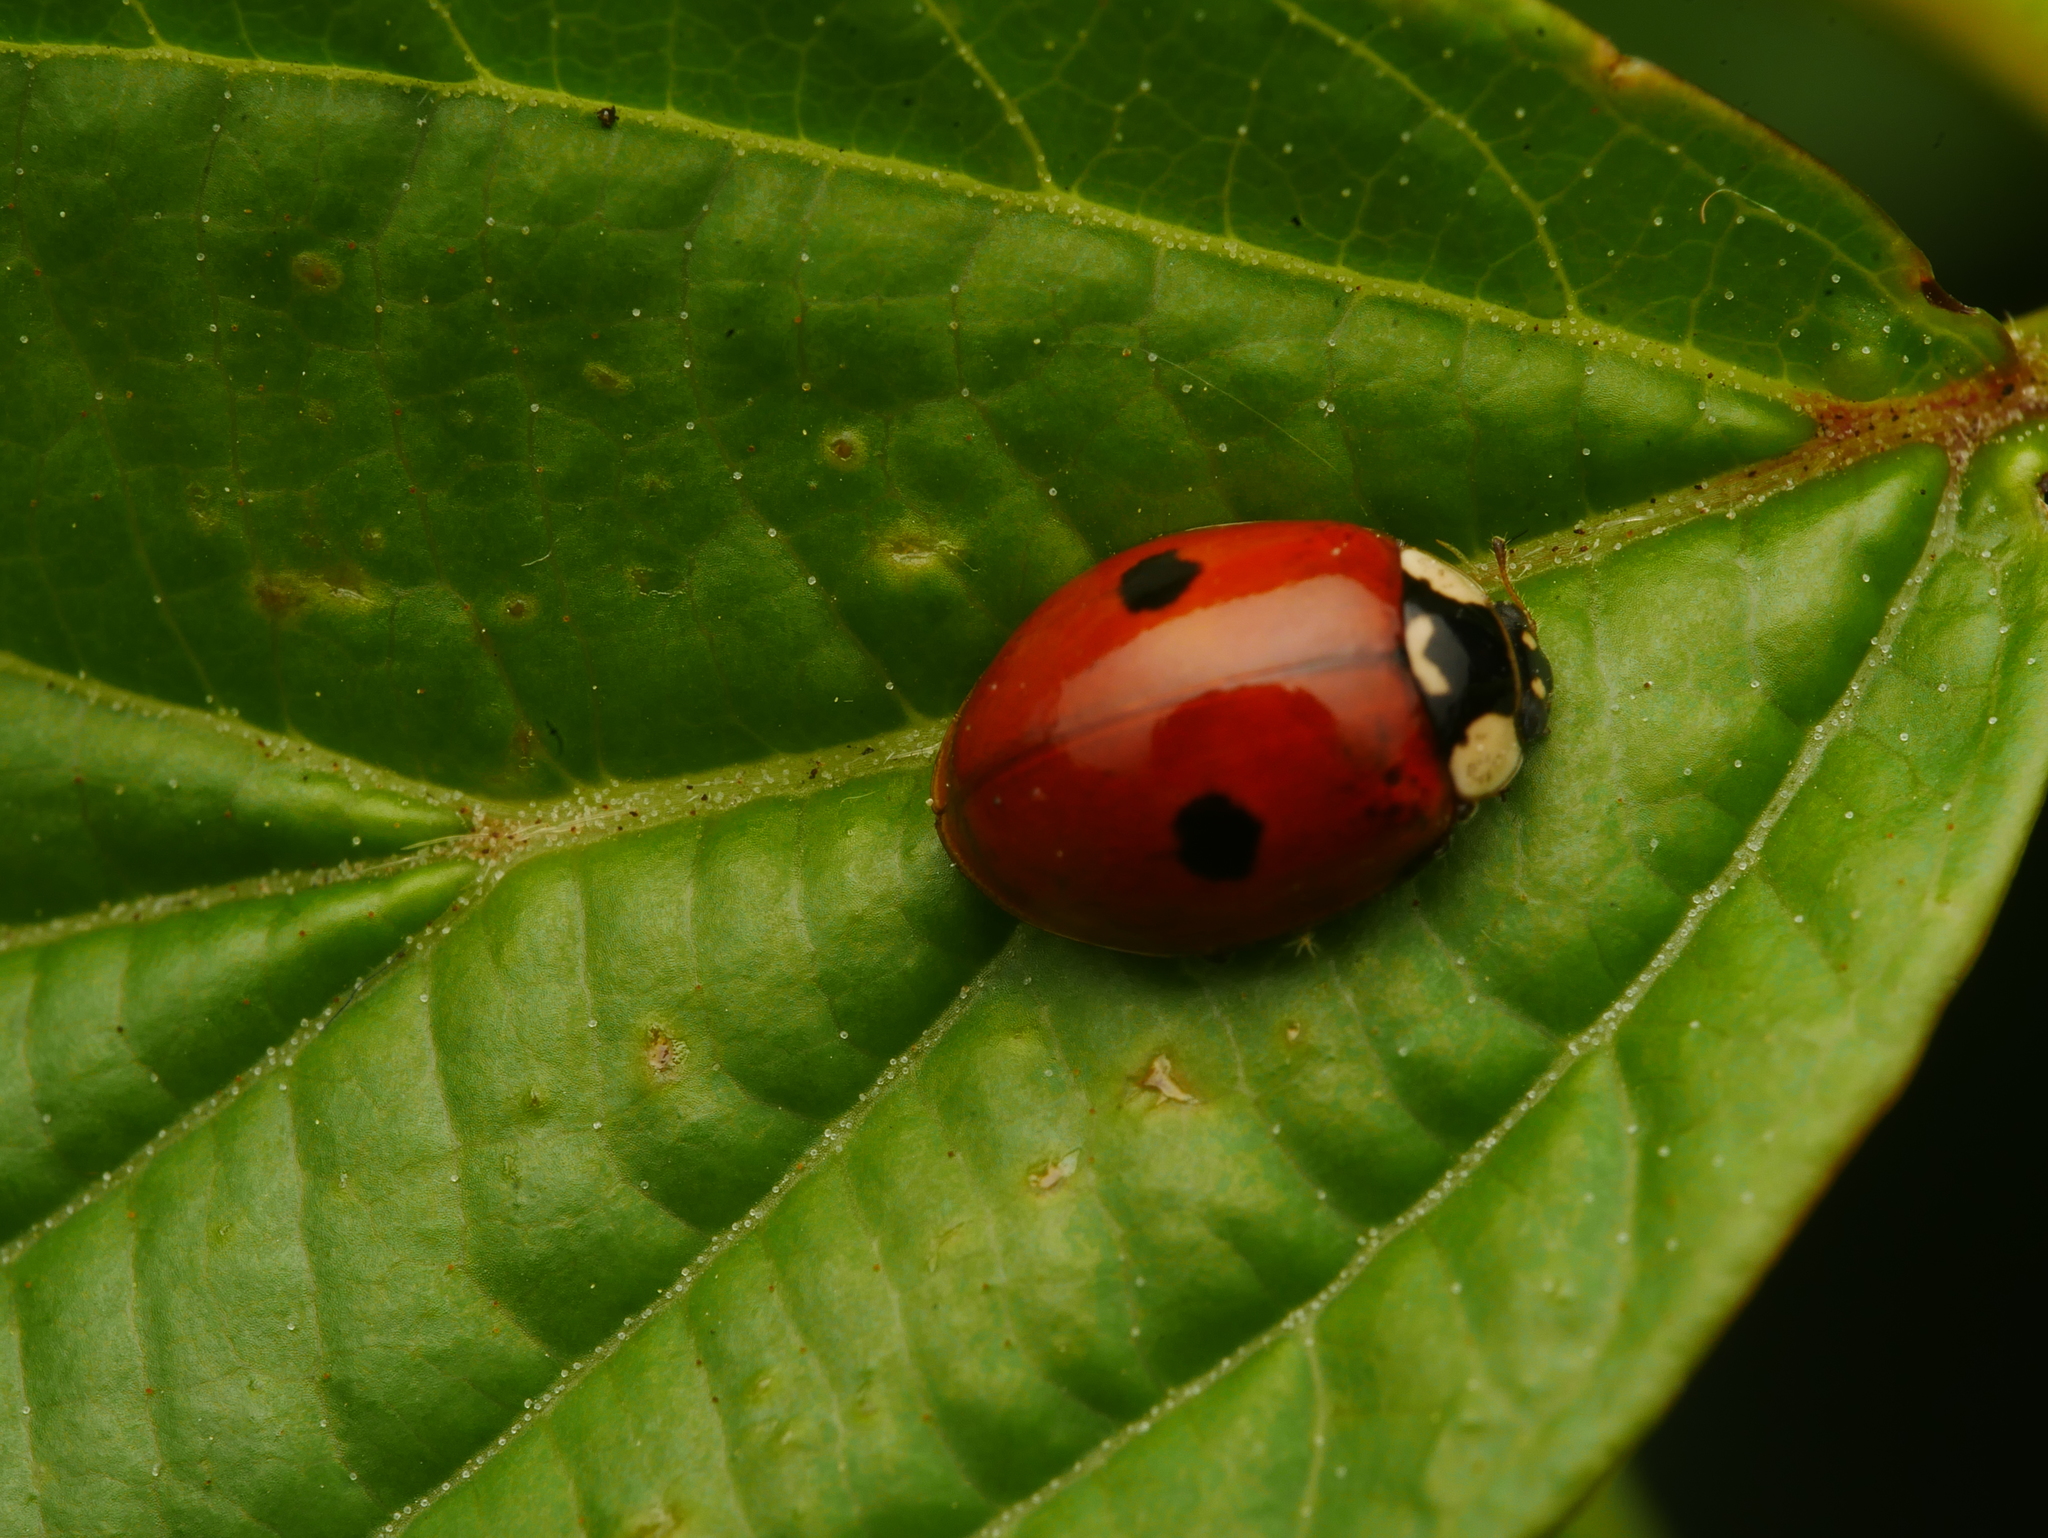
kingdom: Animalia
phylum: Arthropoda
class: Insecta
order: Coleoptera
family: Coccinellidae
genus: Adalia
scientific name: Adalia bipunctata
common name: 2-spot ladybird
